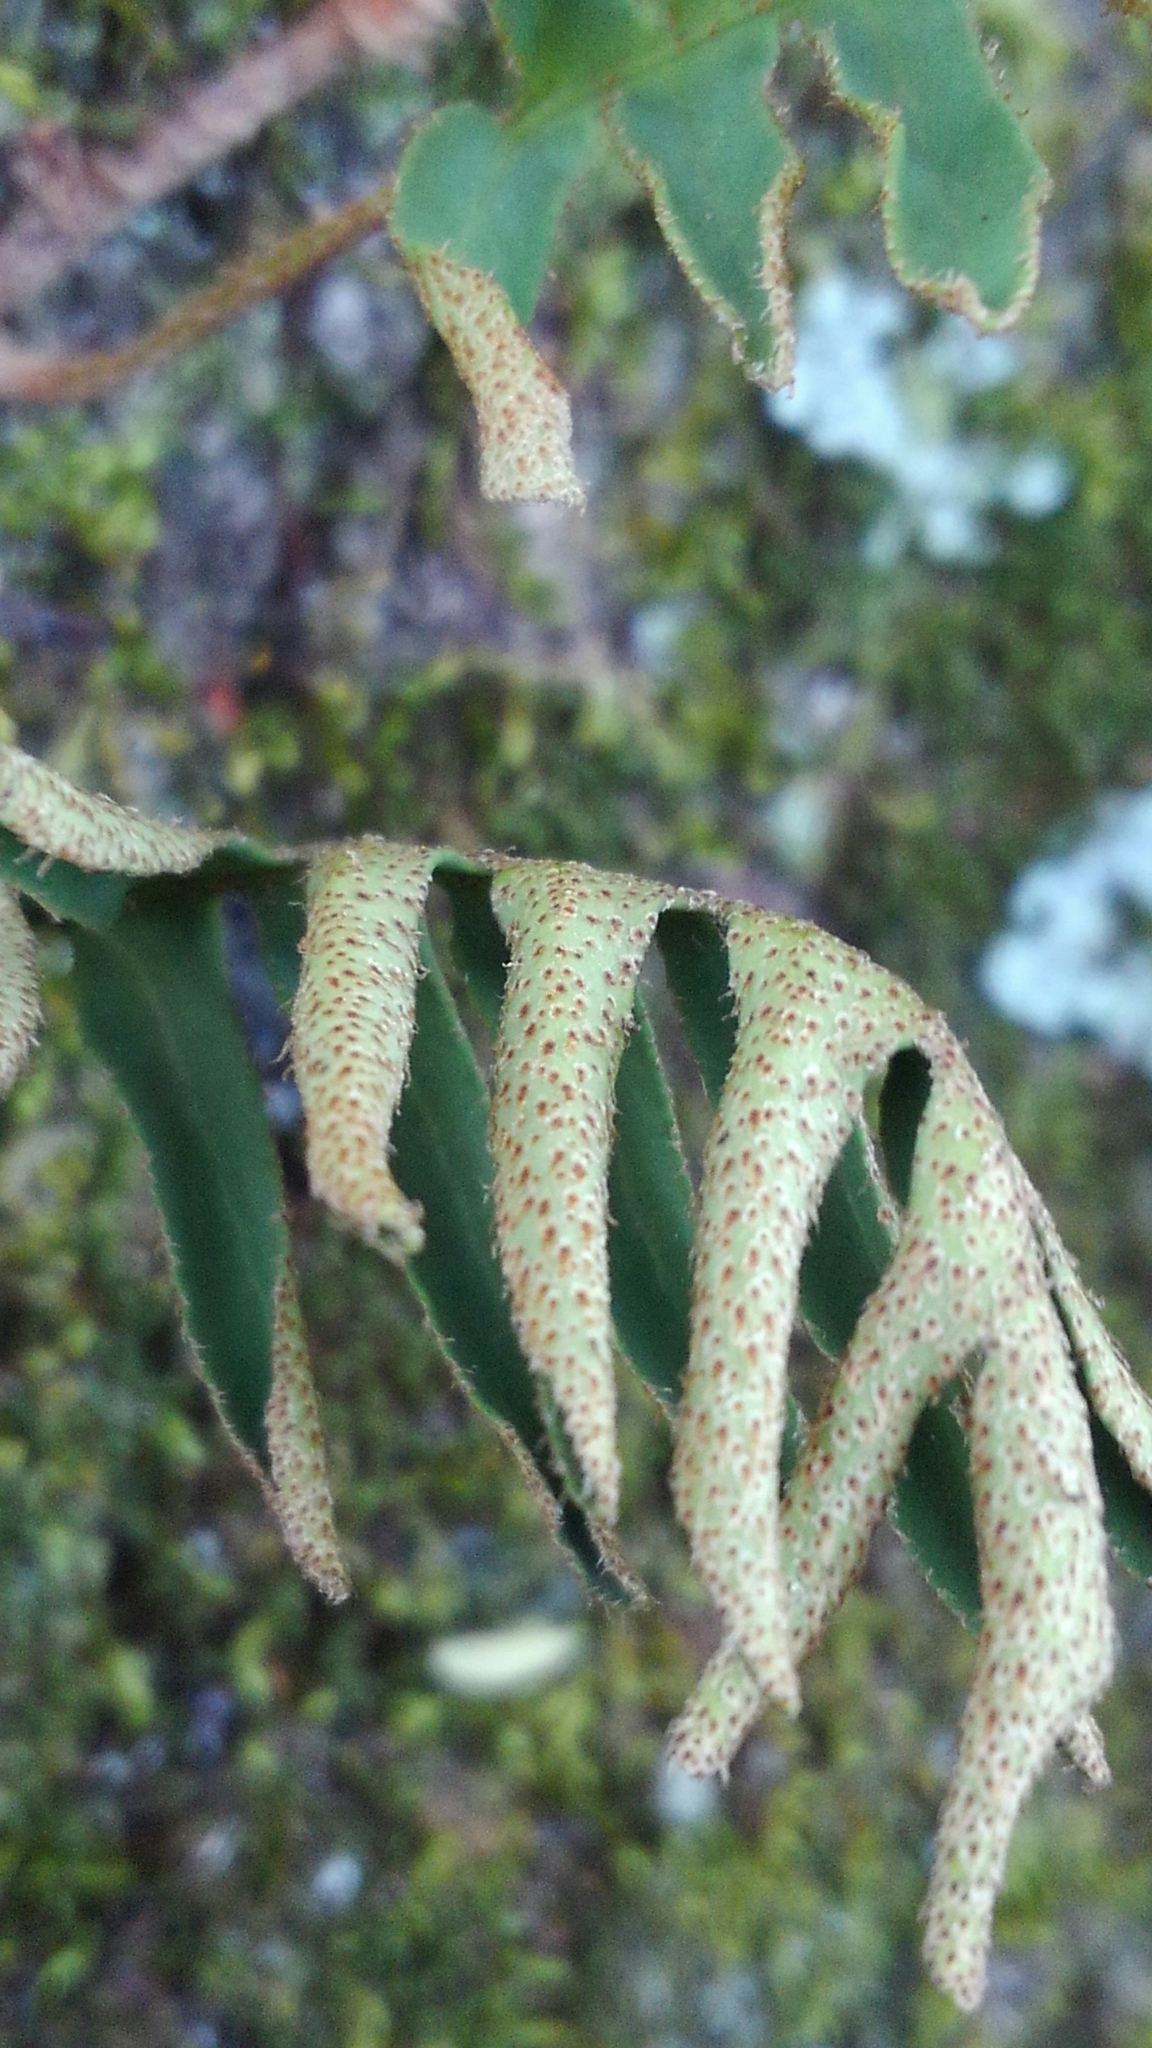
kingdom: Plantae
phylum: Tracheophyta
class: Polypodiopsida
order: Polypodiales
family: Polypodiaceae
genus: Pleopeltis
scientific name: Pleopeltis michauxiana
